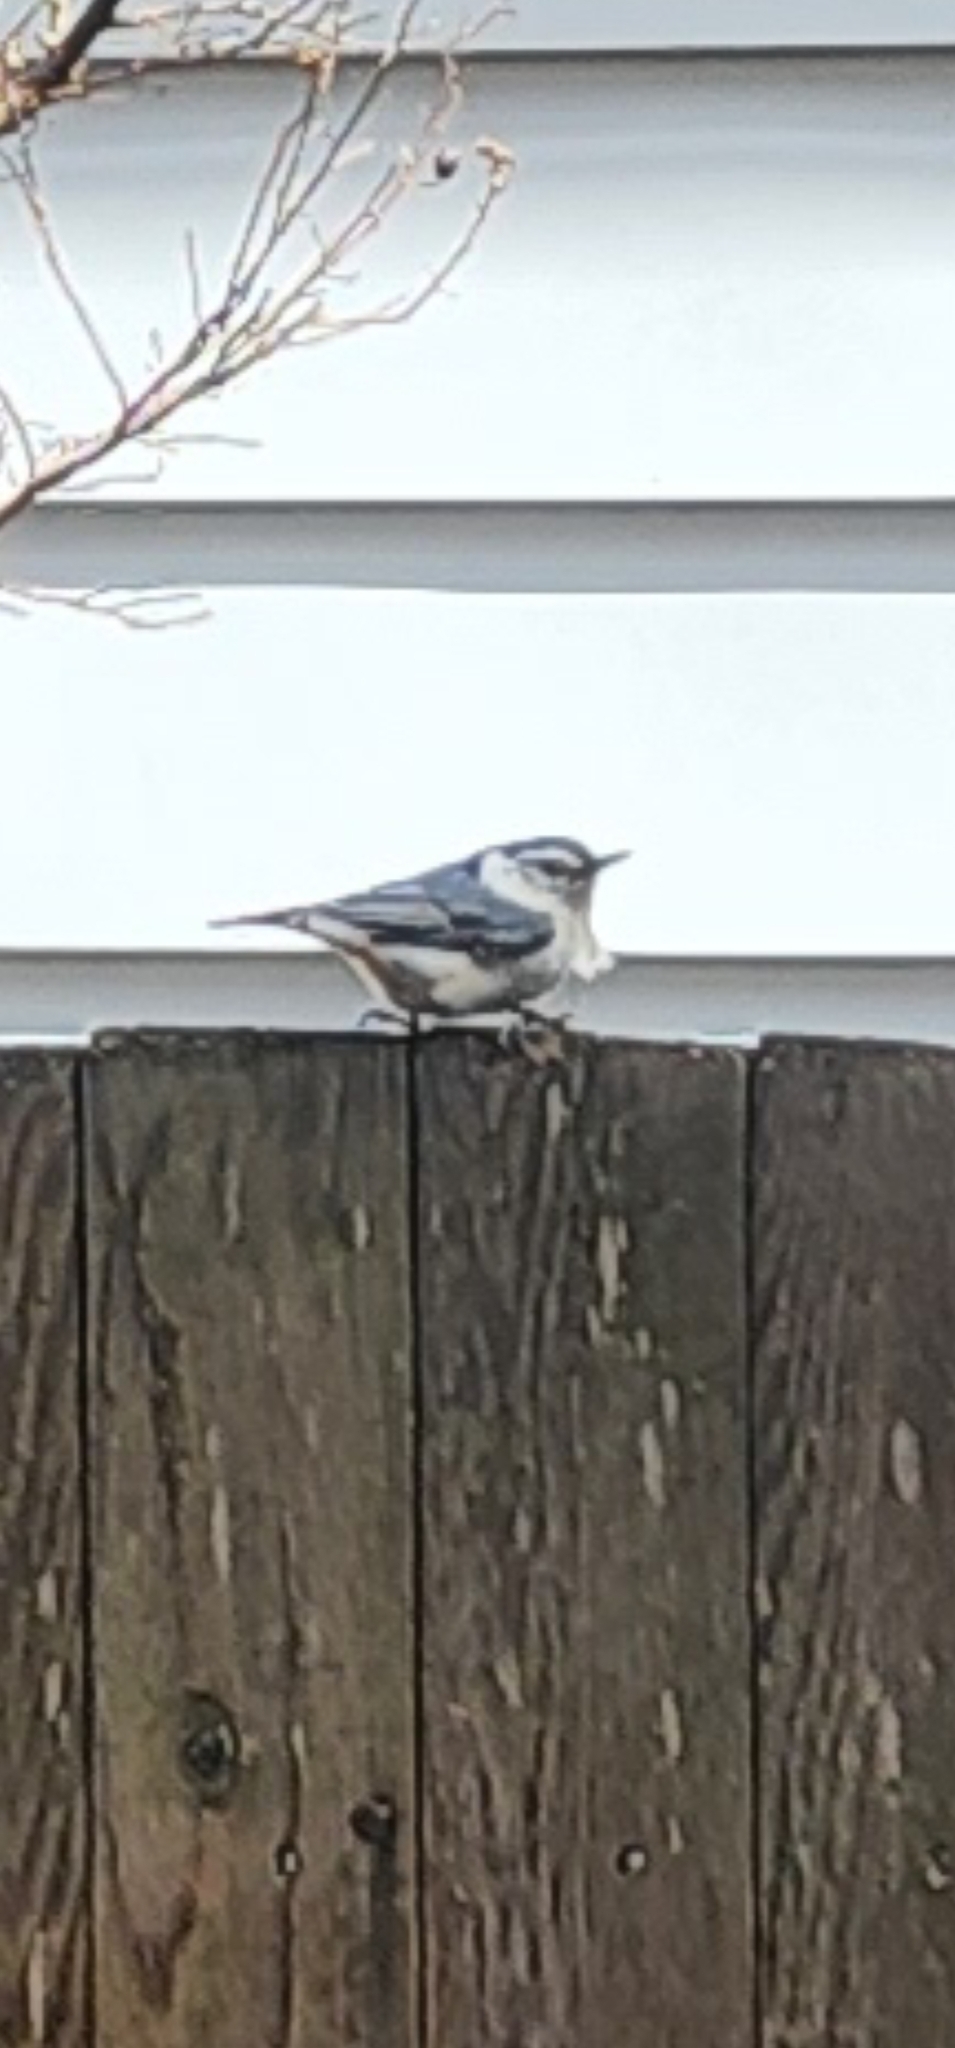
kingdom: Animalia
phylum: Chordata
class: Aves
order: Passeriformes
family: Sittidae
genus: Sitta
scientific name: Sitta carolinensis
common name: White-breasted nuthatch
